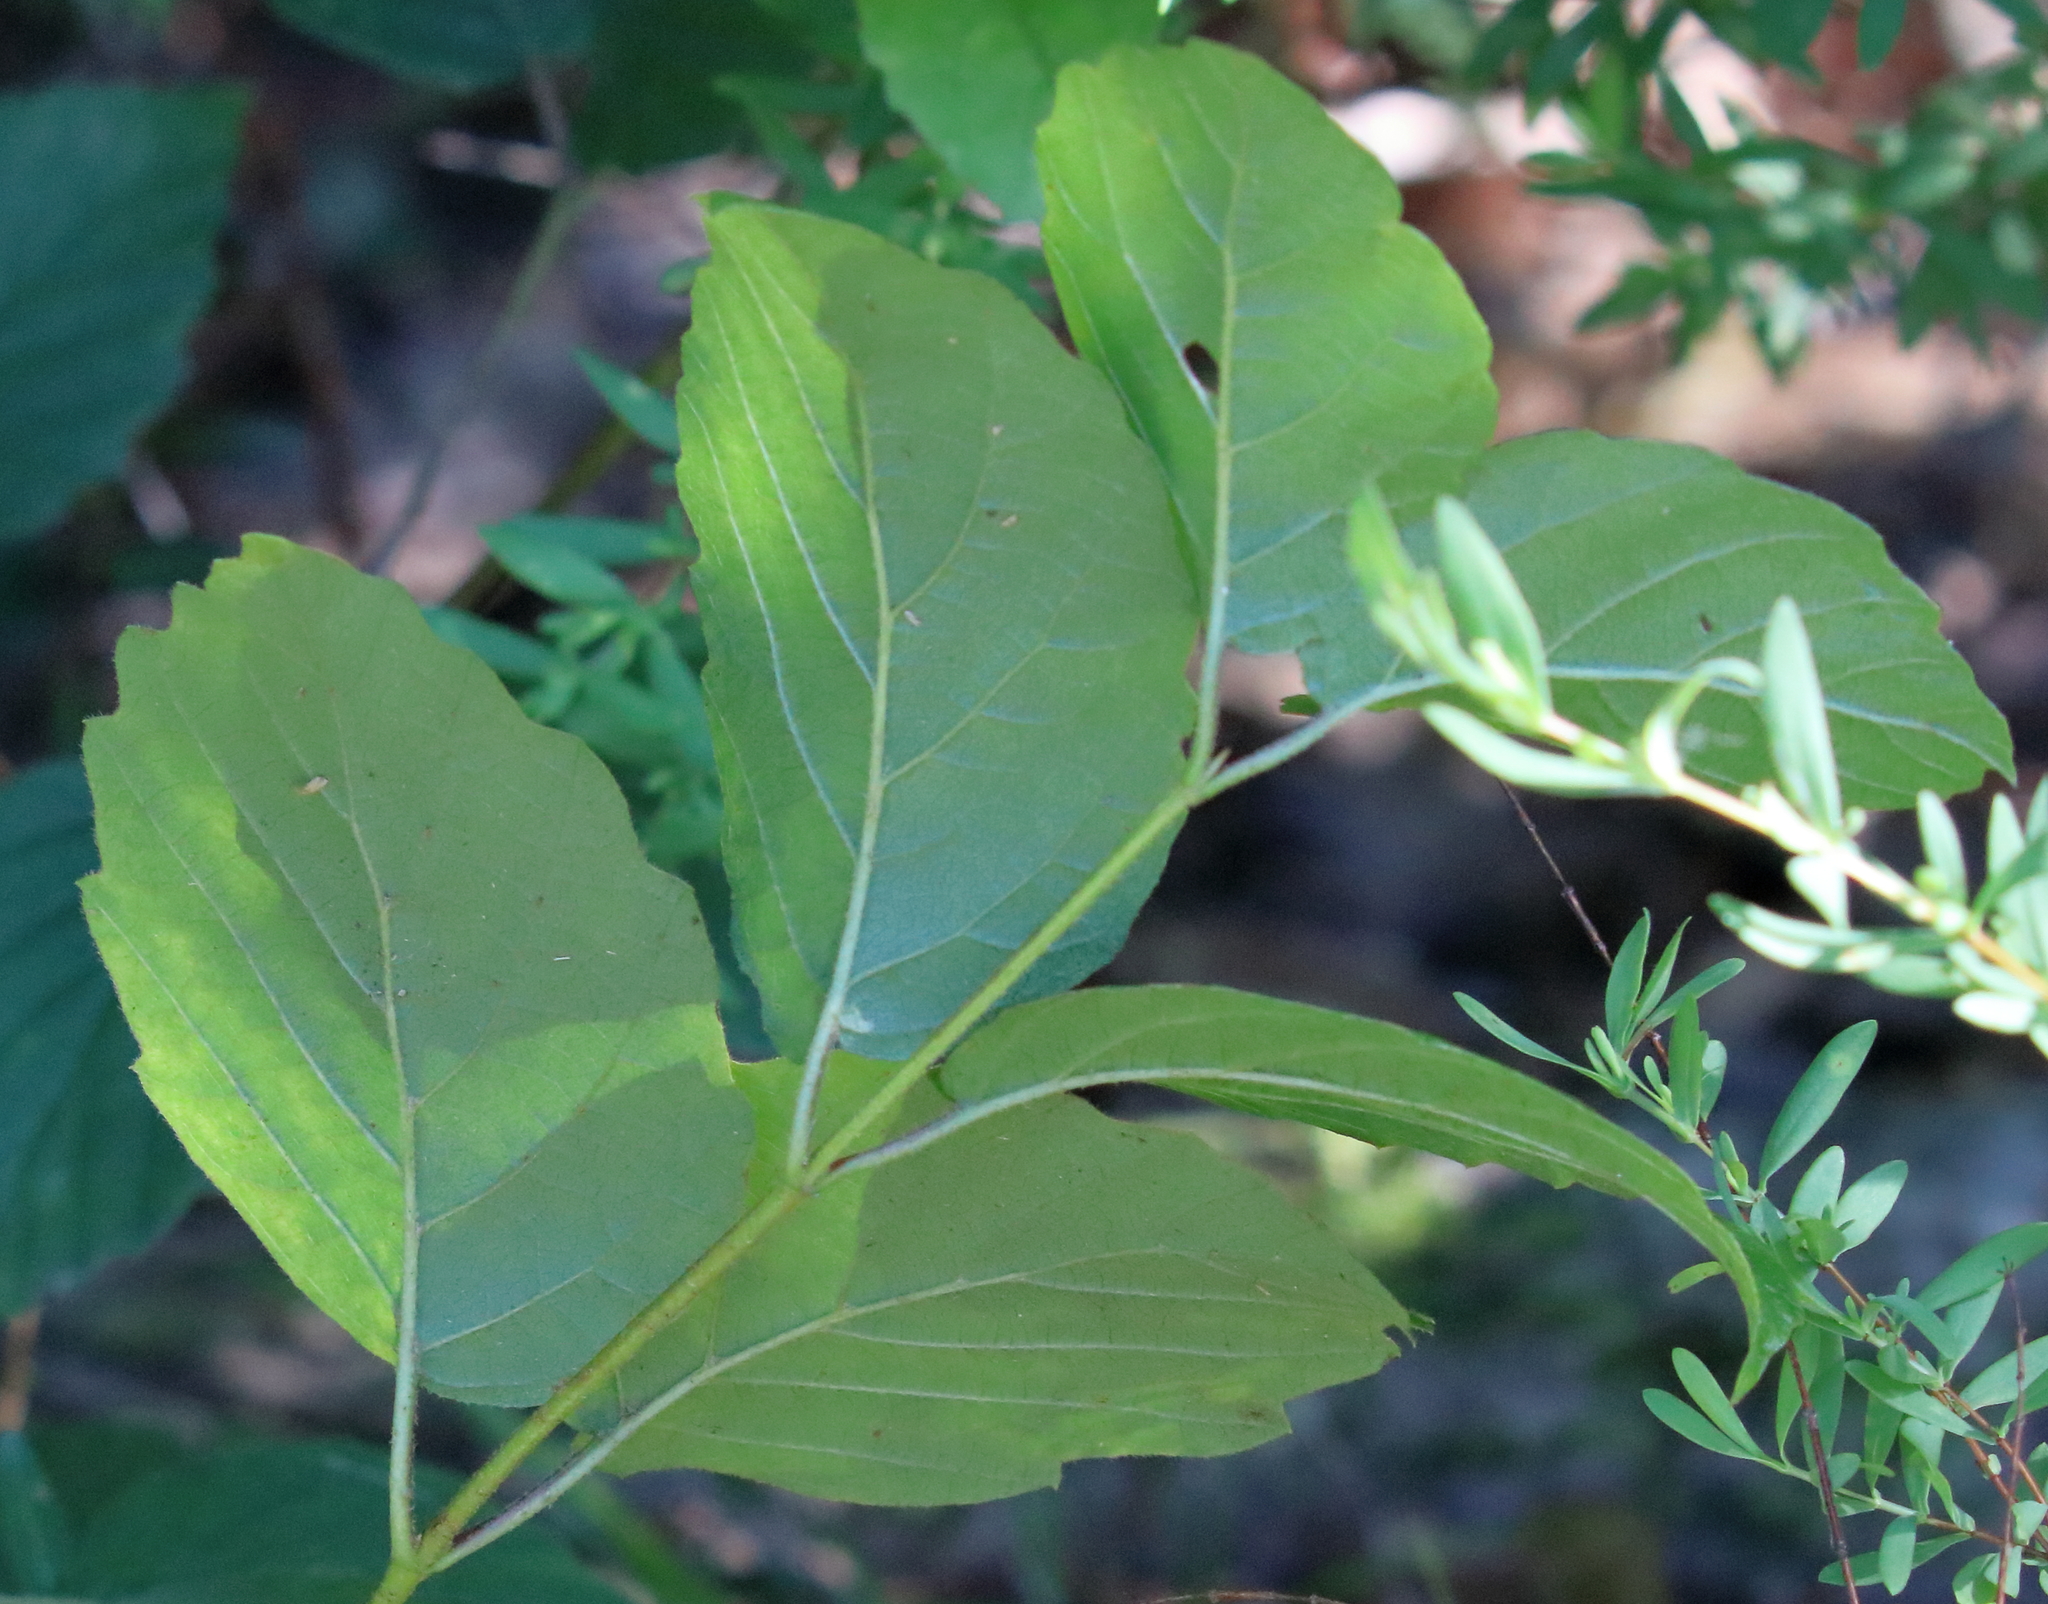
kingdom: Plantae
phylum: Tracheophyta
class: Magnoliopsida
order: Dipsacales
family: Viburnaceae
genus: Viburnum
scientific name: Viburnum scabrellum
